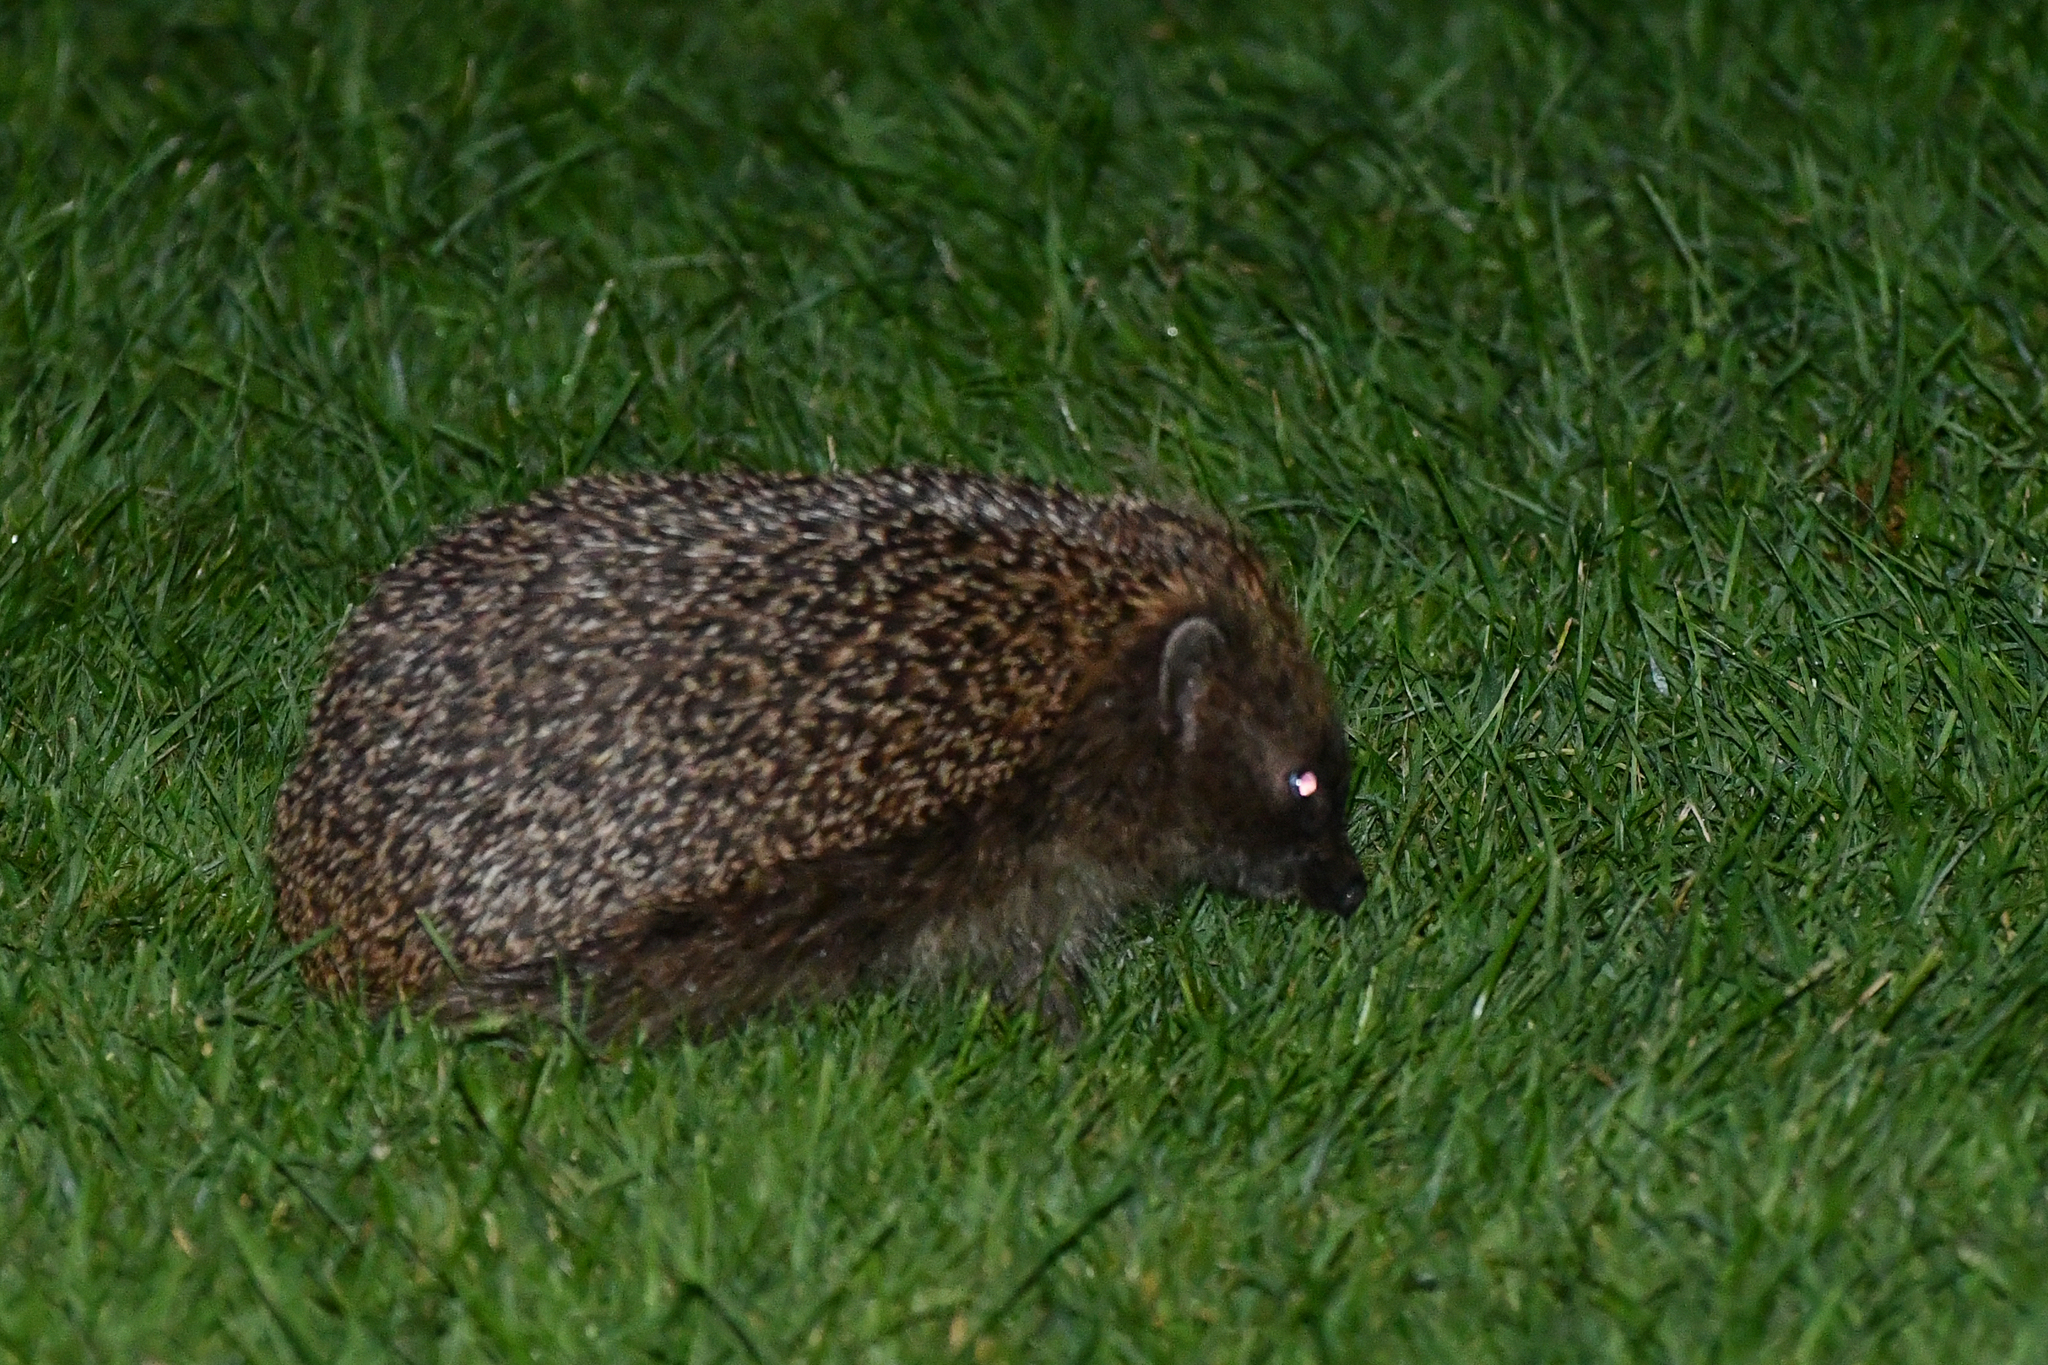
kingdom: Animalia
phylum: Chordata
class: Mammalia
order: Erinaceomorpha
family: Erinaceidae
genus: Erinaceus
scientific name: Erinaceus europaeus
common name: West european hedgehog
